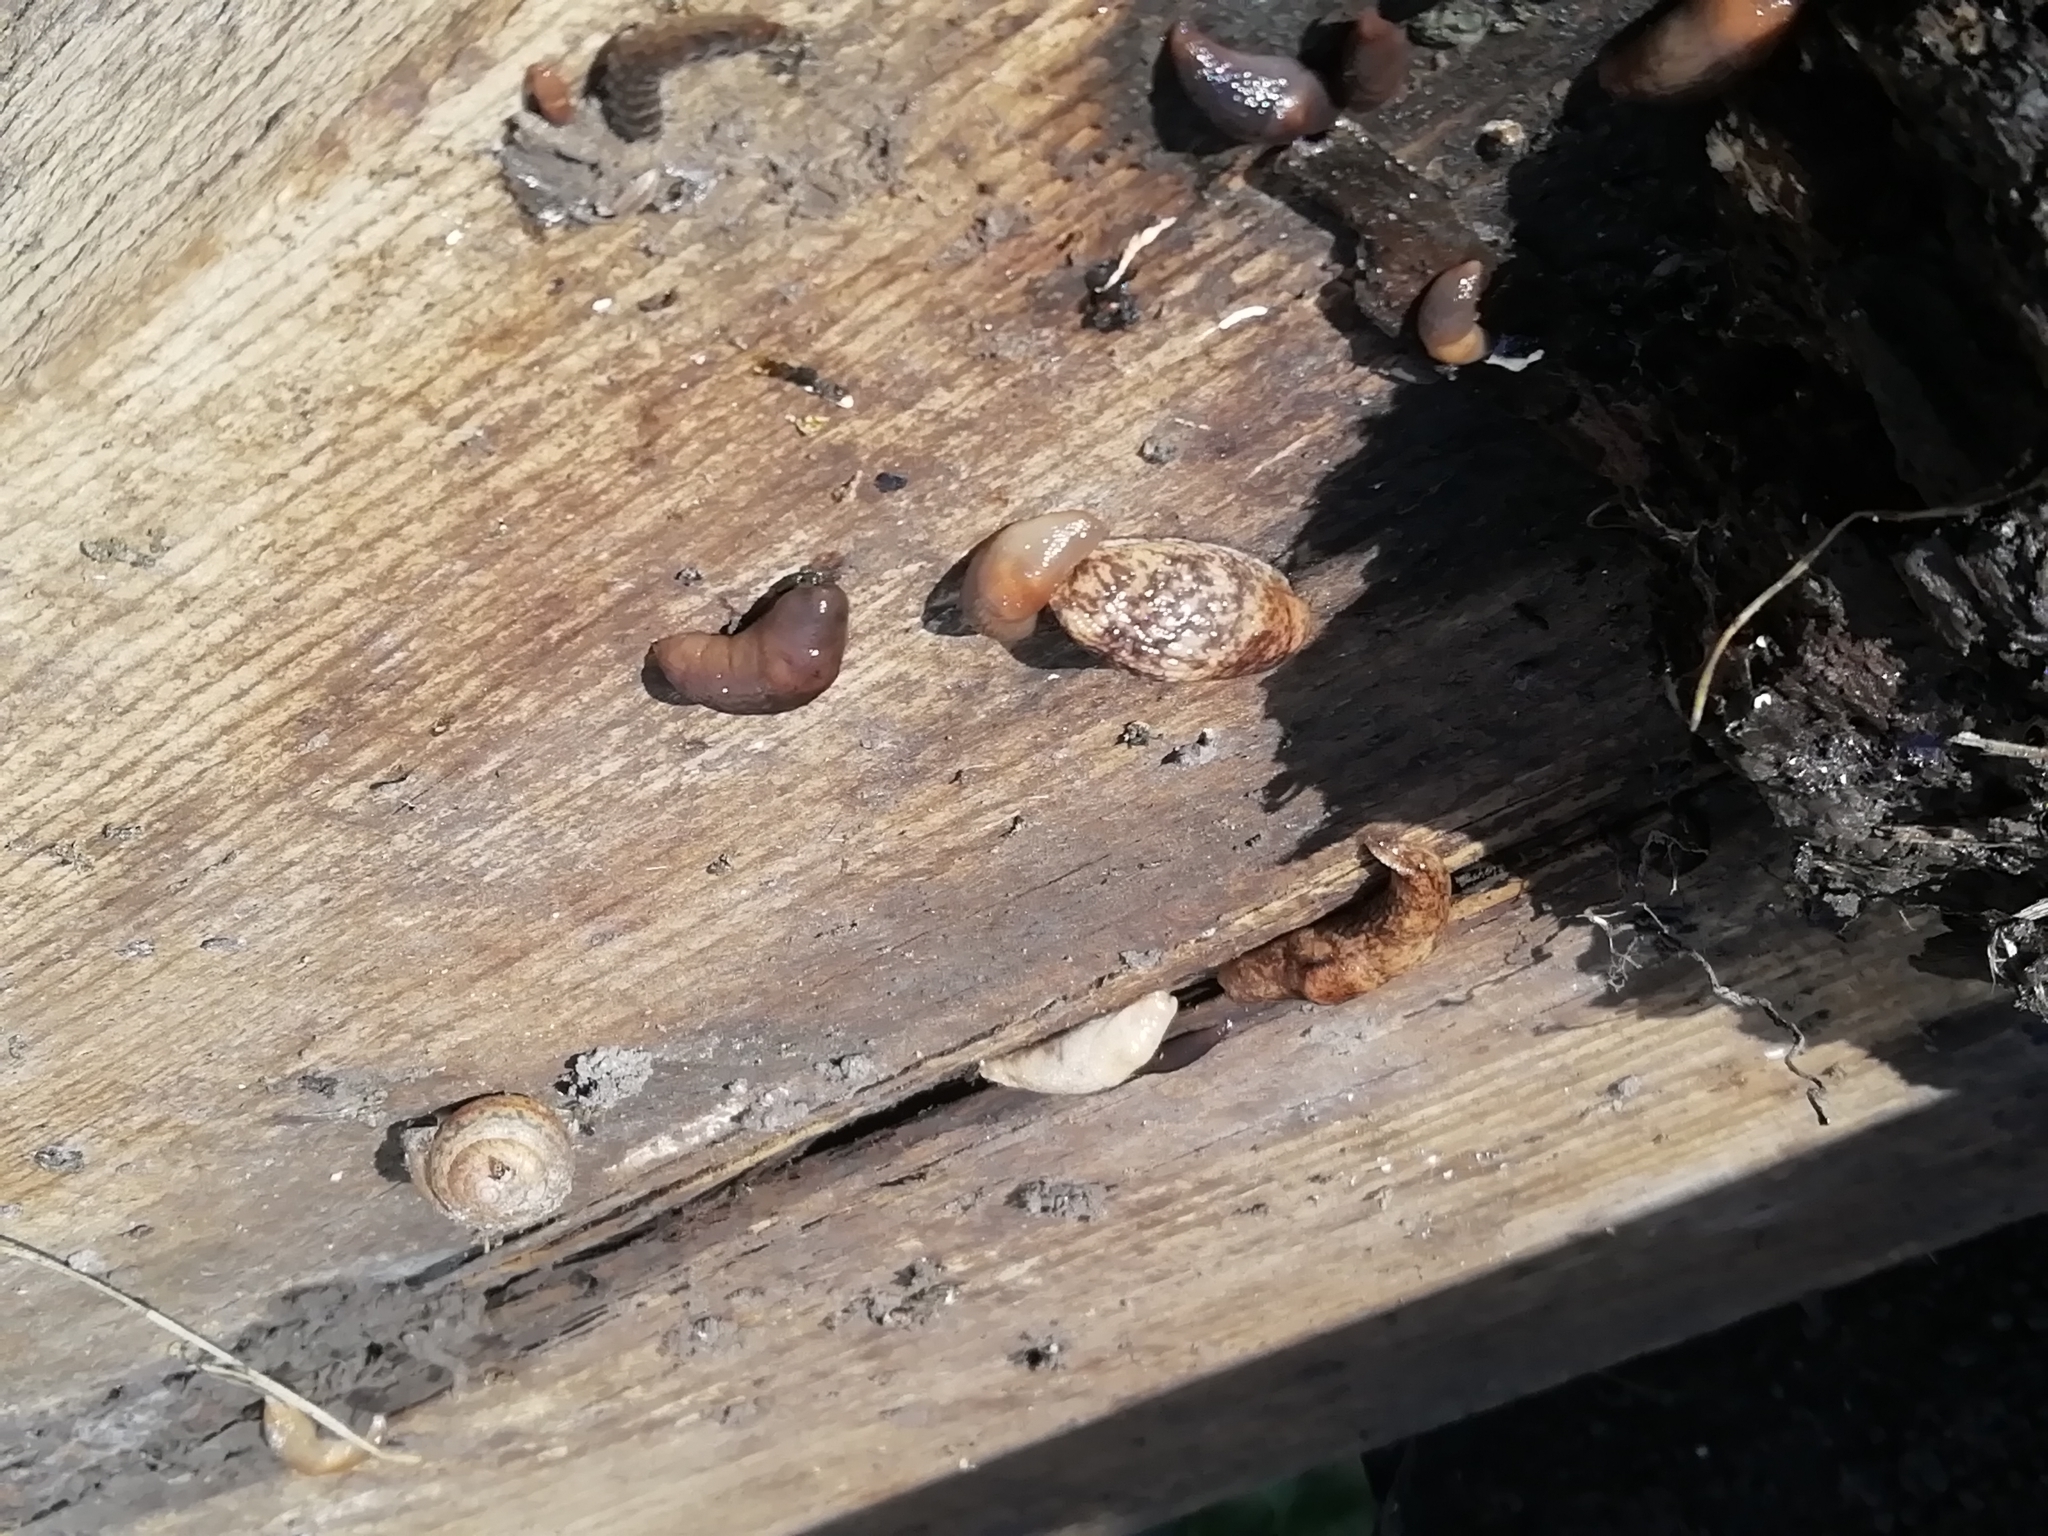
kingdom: Animalia
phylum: Mollusca
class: Gastropoda
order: Stylommatophora
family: Agriolimacidae
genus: Deroceras
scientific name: Deroceras reticulatum
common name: Gray field slug
